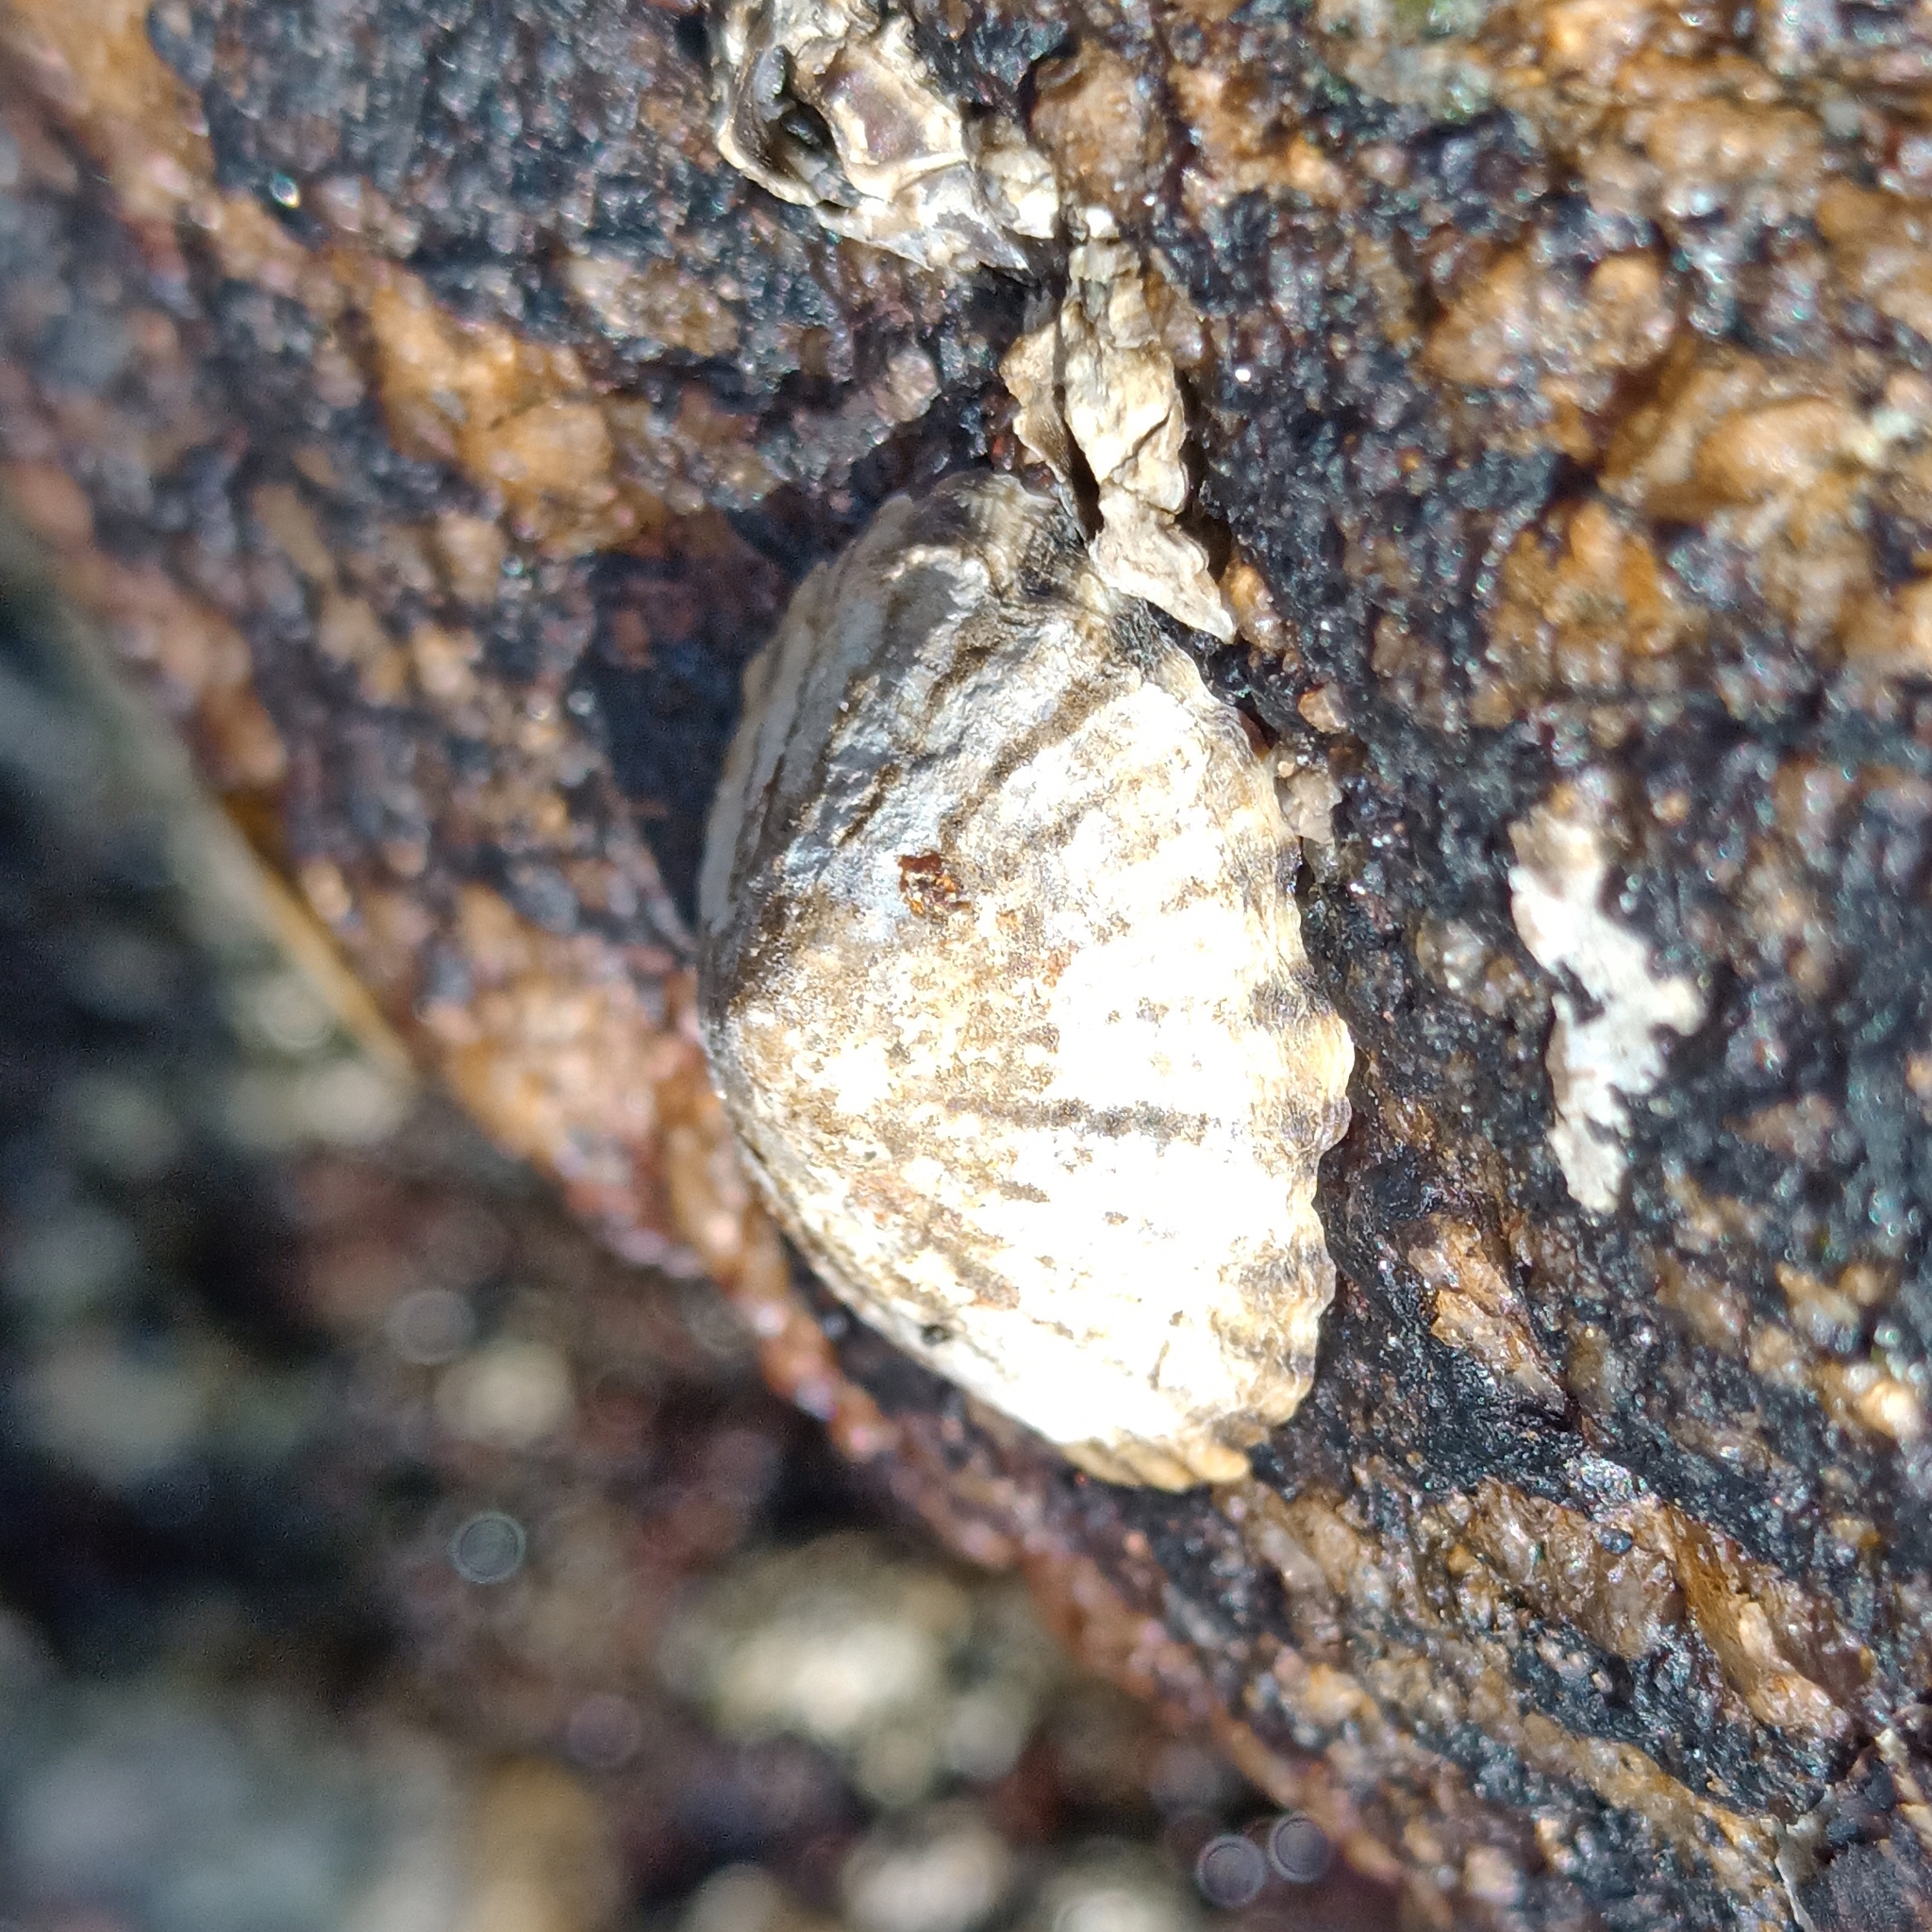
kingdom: Animalia
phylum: Mollusca
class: Gastropoda
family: Lottiidae
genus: Lottia
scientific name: Lottia subrugosa
